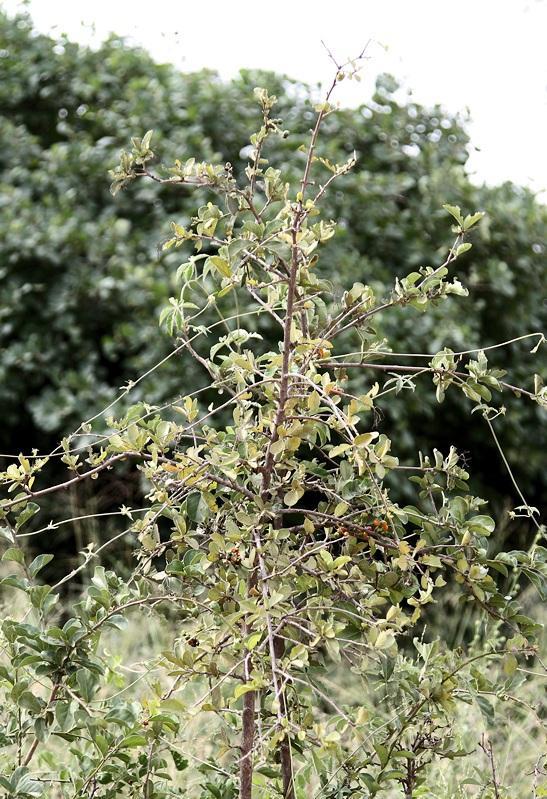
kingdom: Plantae
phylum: Tracheophyta
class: Magnoliopsida
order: Boraginales
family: Ehretiaceae
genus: Ehretia
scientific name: Ehretia obtusifolia
